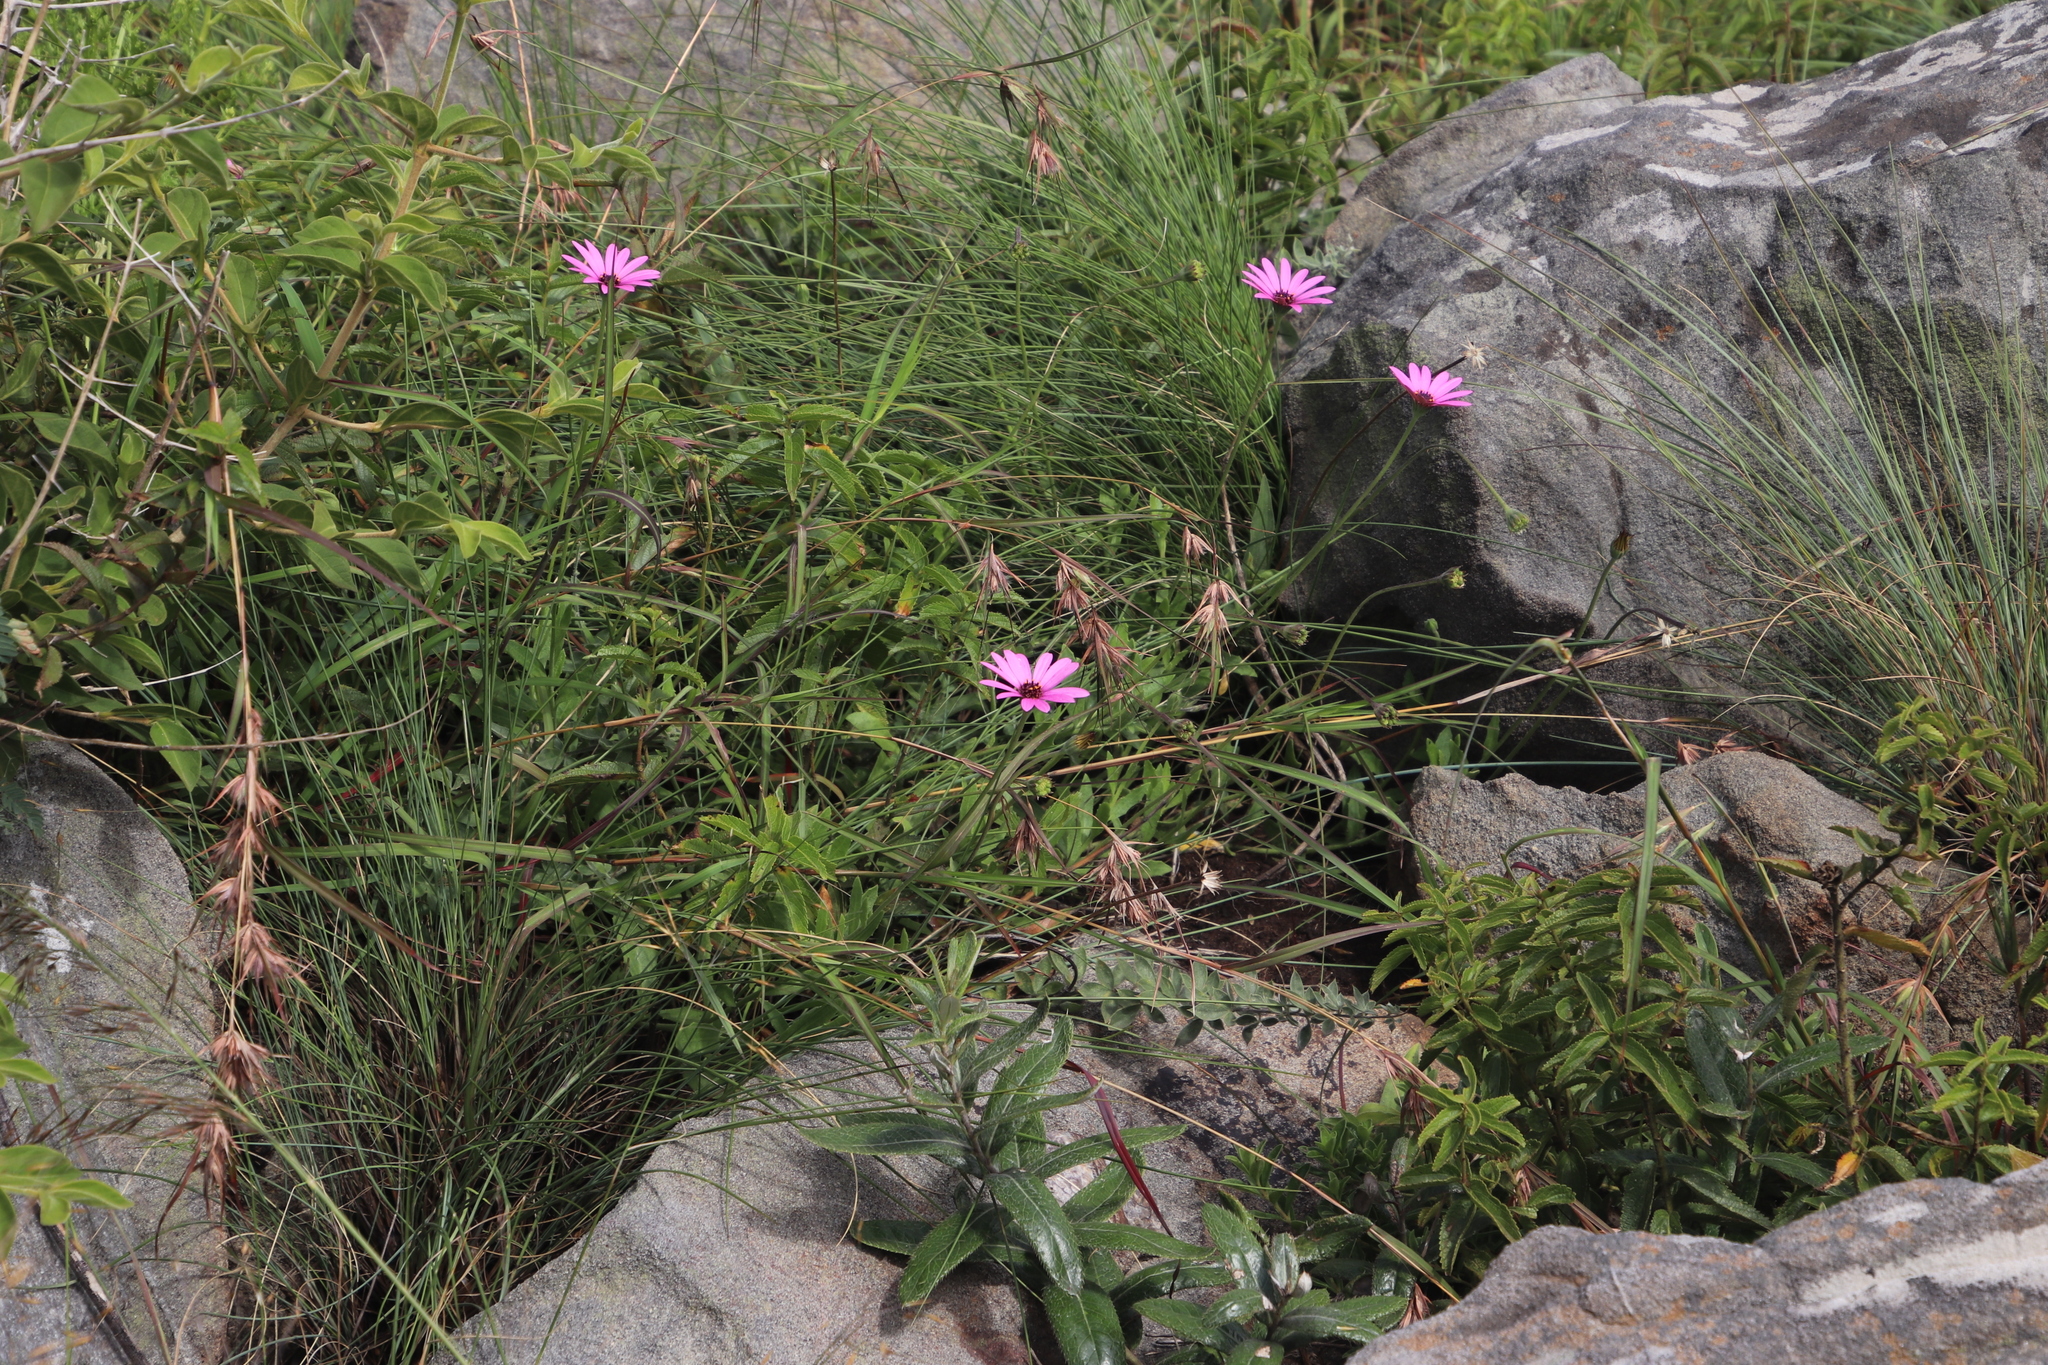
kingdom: Plantae
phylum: Tracheophyta
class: Magnoliopsida
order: Asterales
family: Asteraceae
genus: Dimorphotheca
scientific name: Dimorphotheca jucunda
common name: Osteospermum
